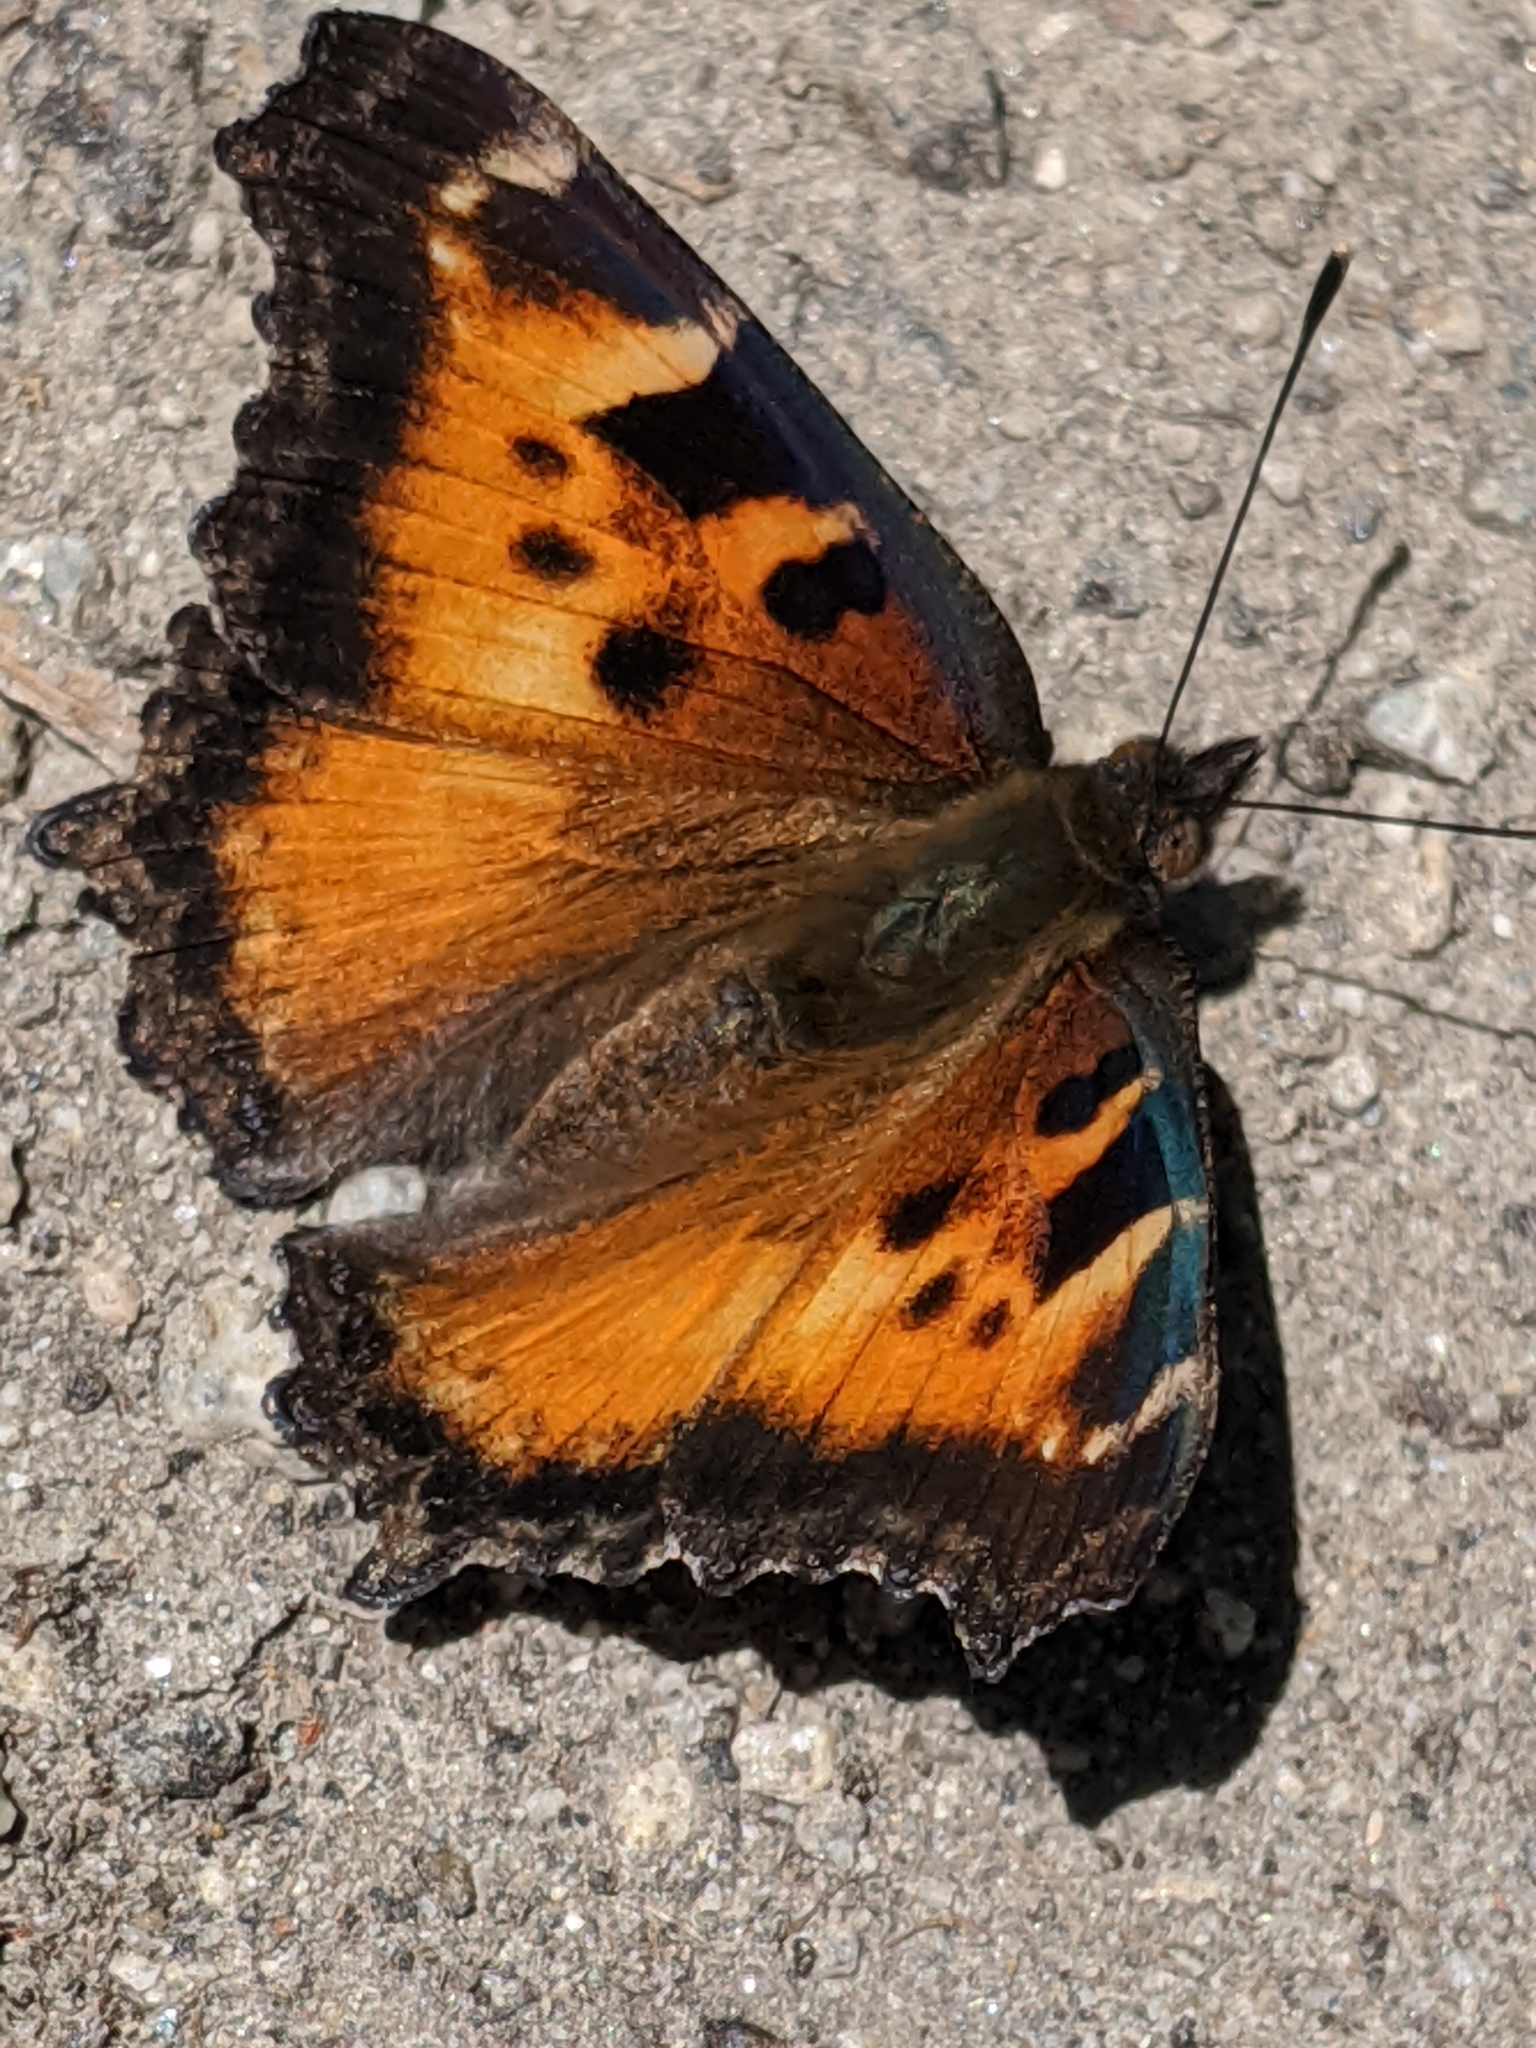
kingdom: Animalia
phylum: Arthropoda
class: Insecta
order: Lepidoptera
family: Nymphalidae
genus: Nymphalis
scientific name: Nymphalis californica
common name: California tortoiseshell
